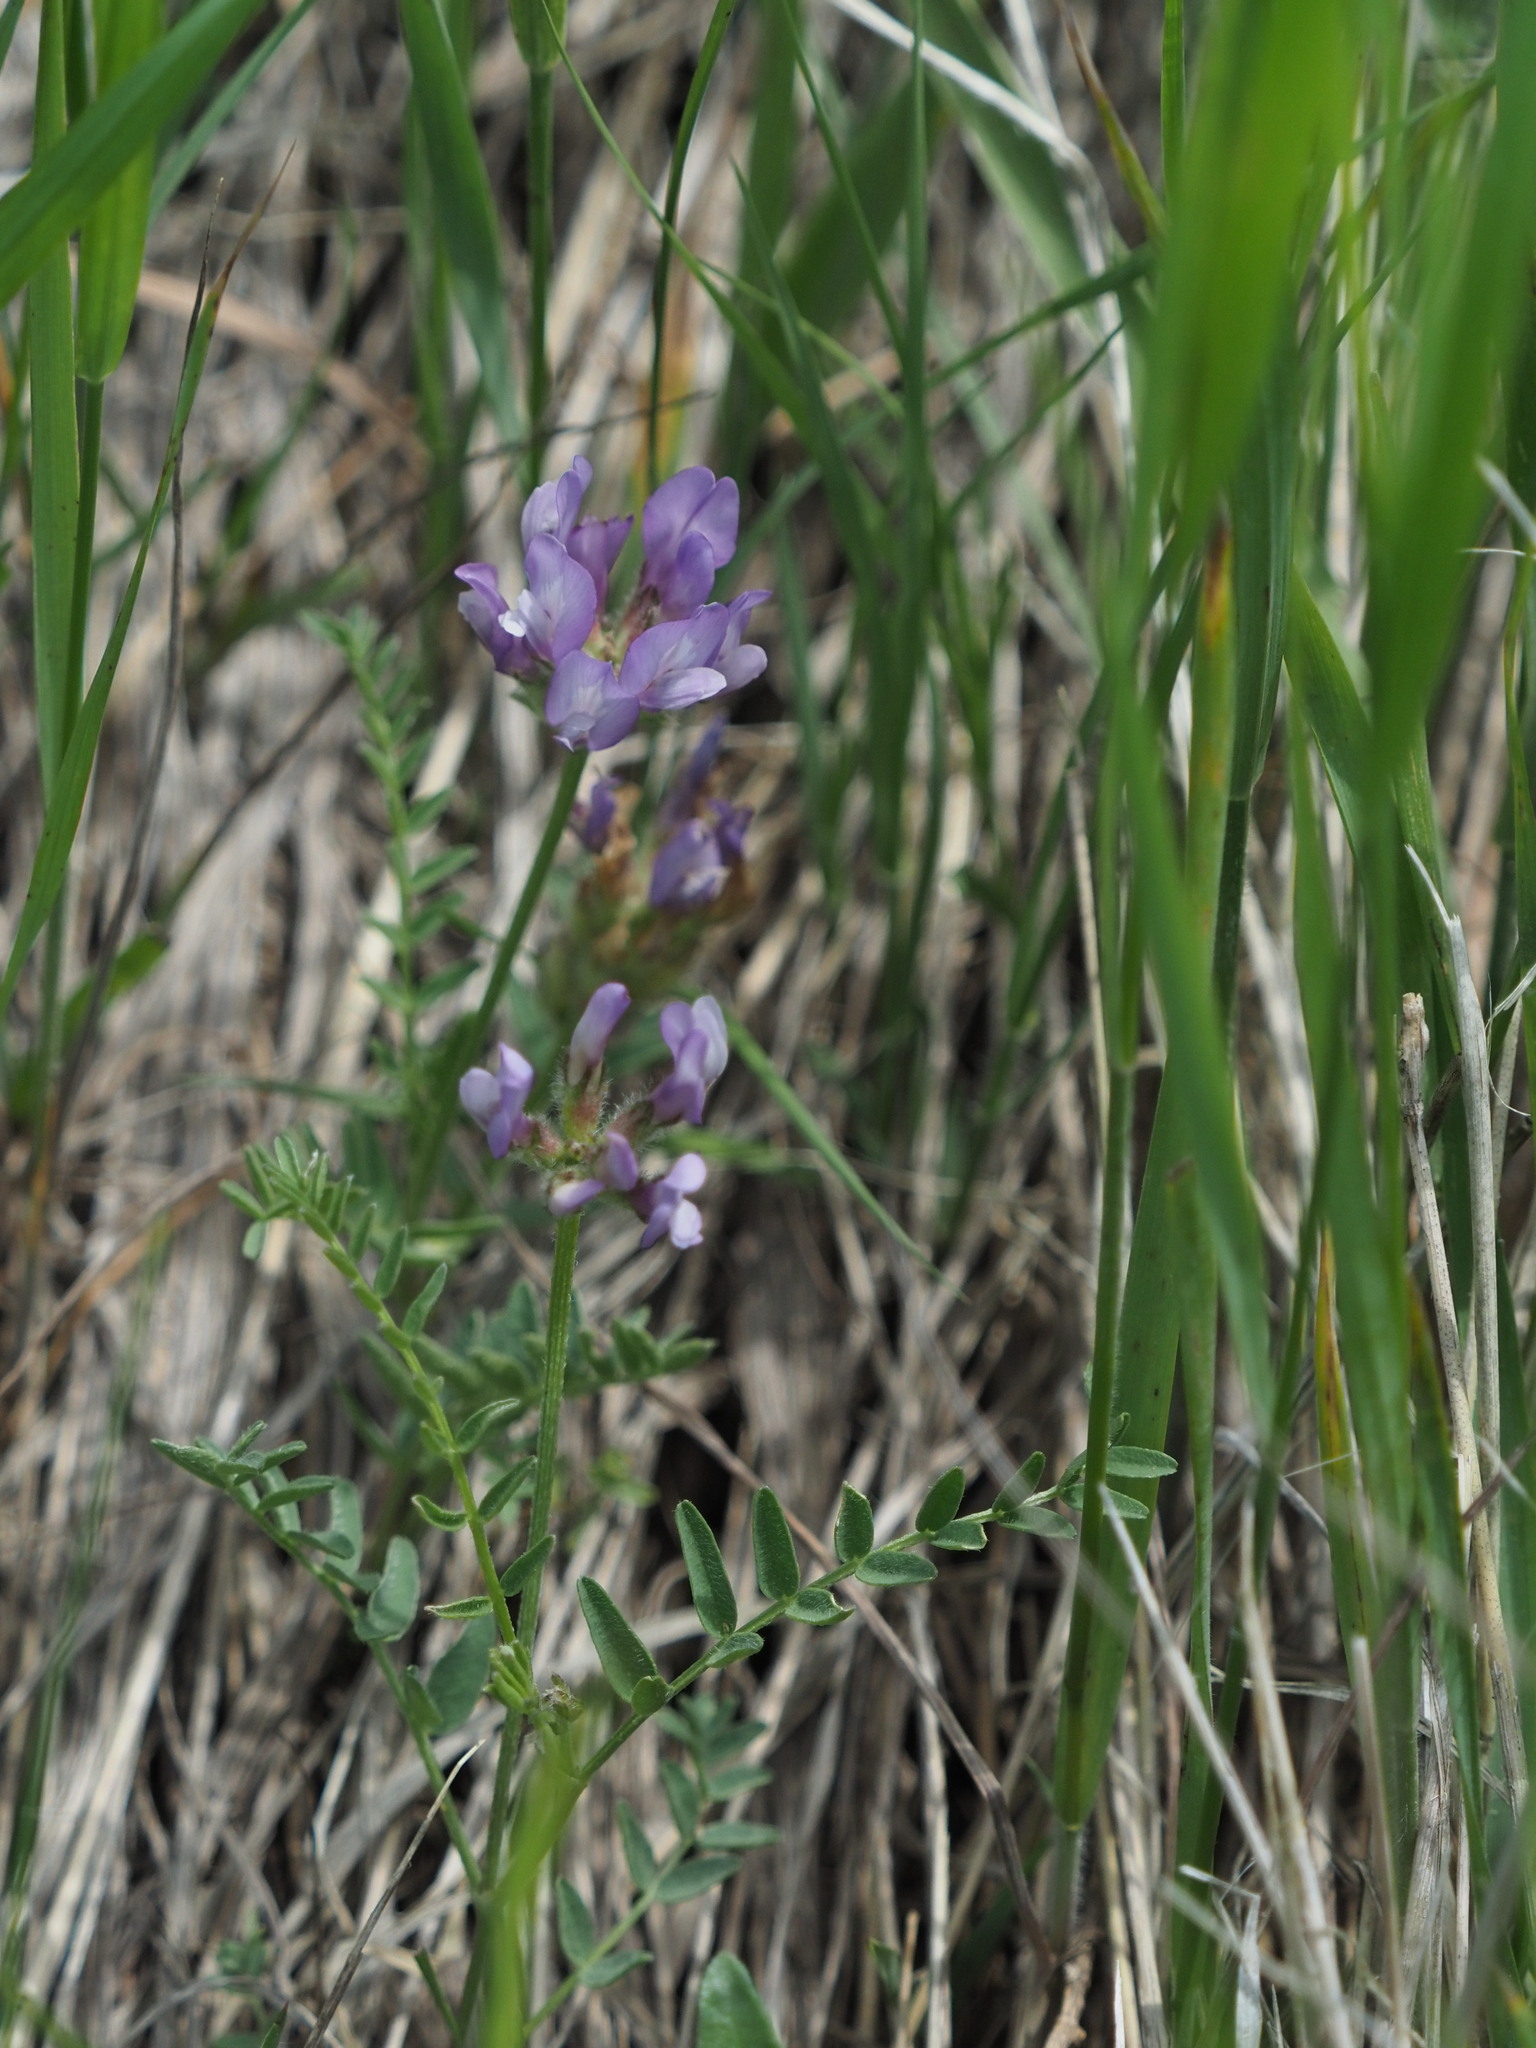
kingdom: Plantae
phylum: Tracheophyta
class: Magnoliopsida
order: Fabales
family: Fabaceae
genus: Astragalus
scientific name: Astragalus agrestis
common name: Field milk-vetch
